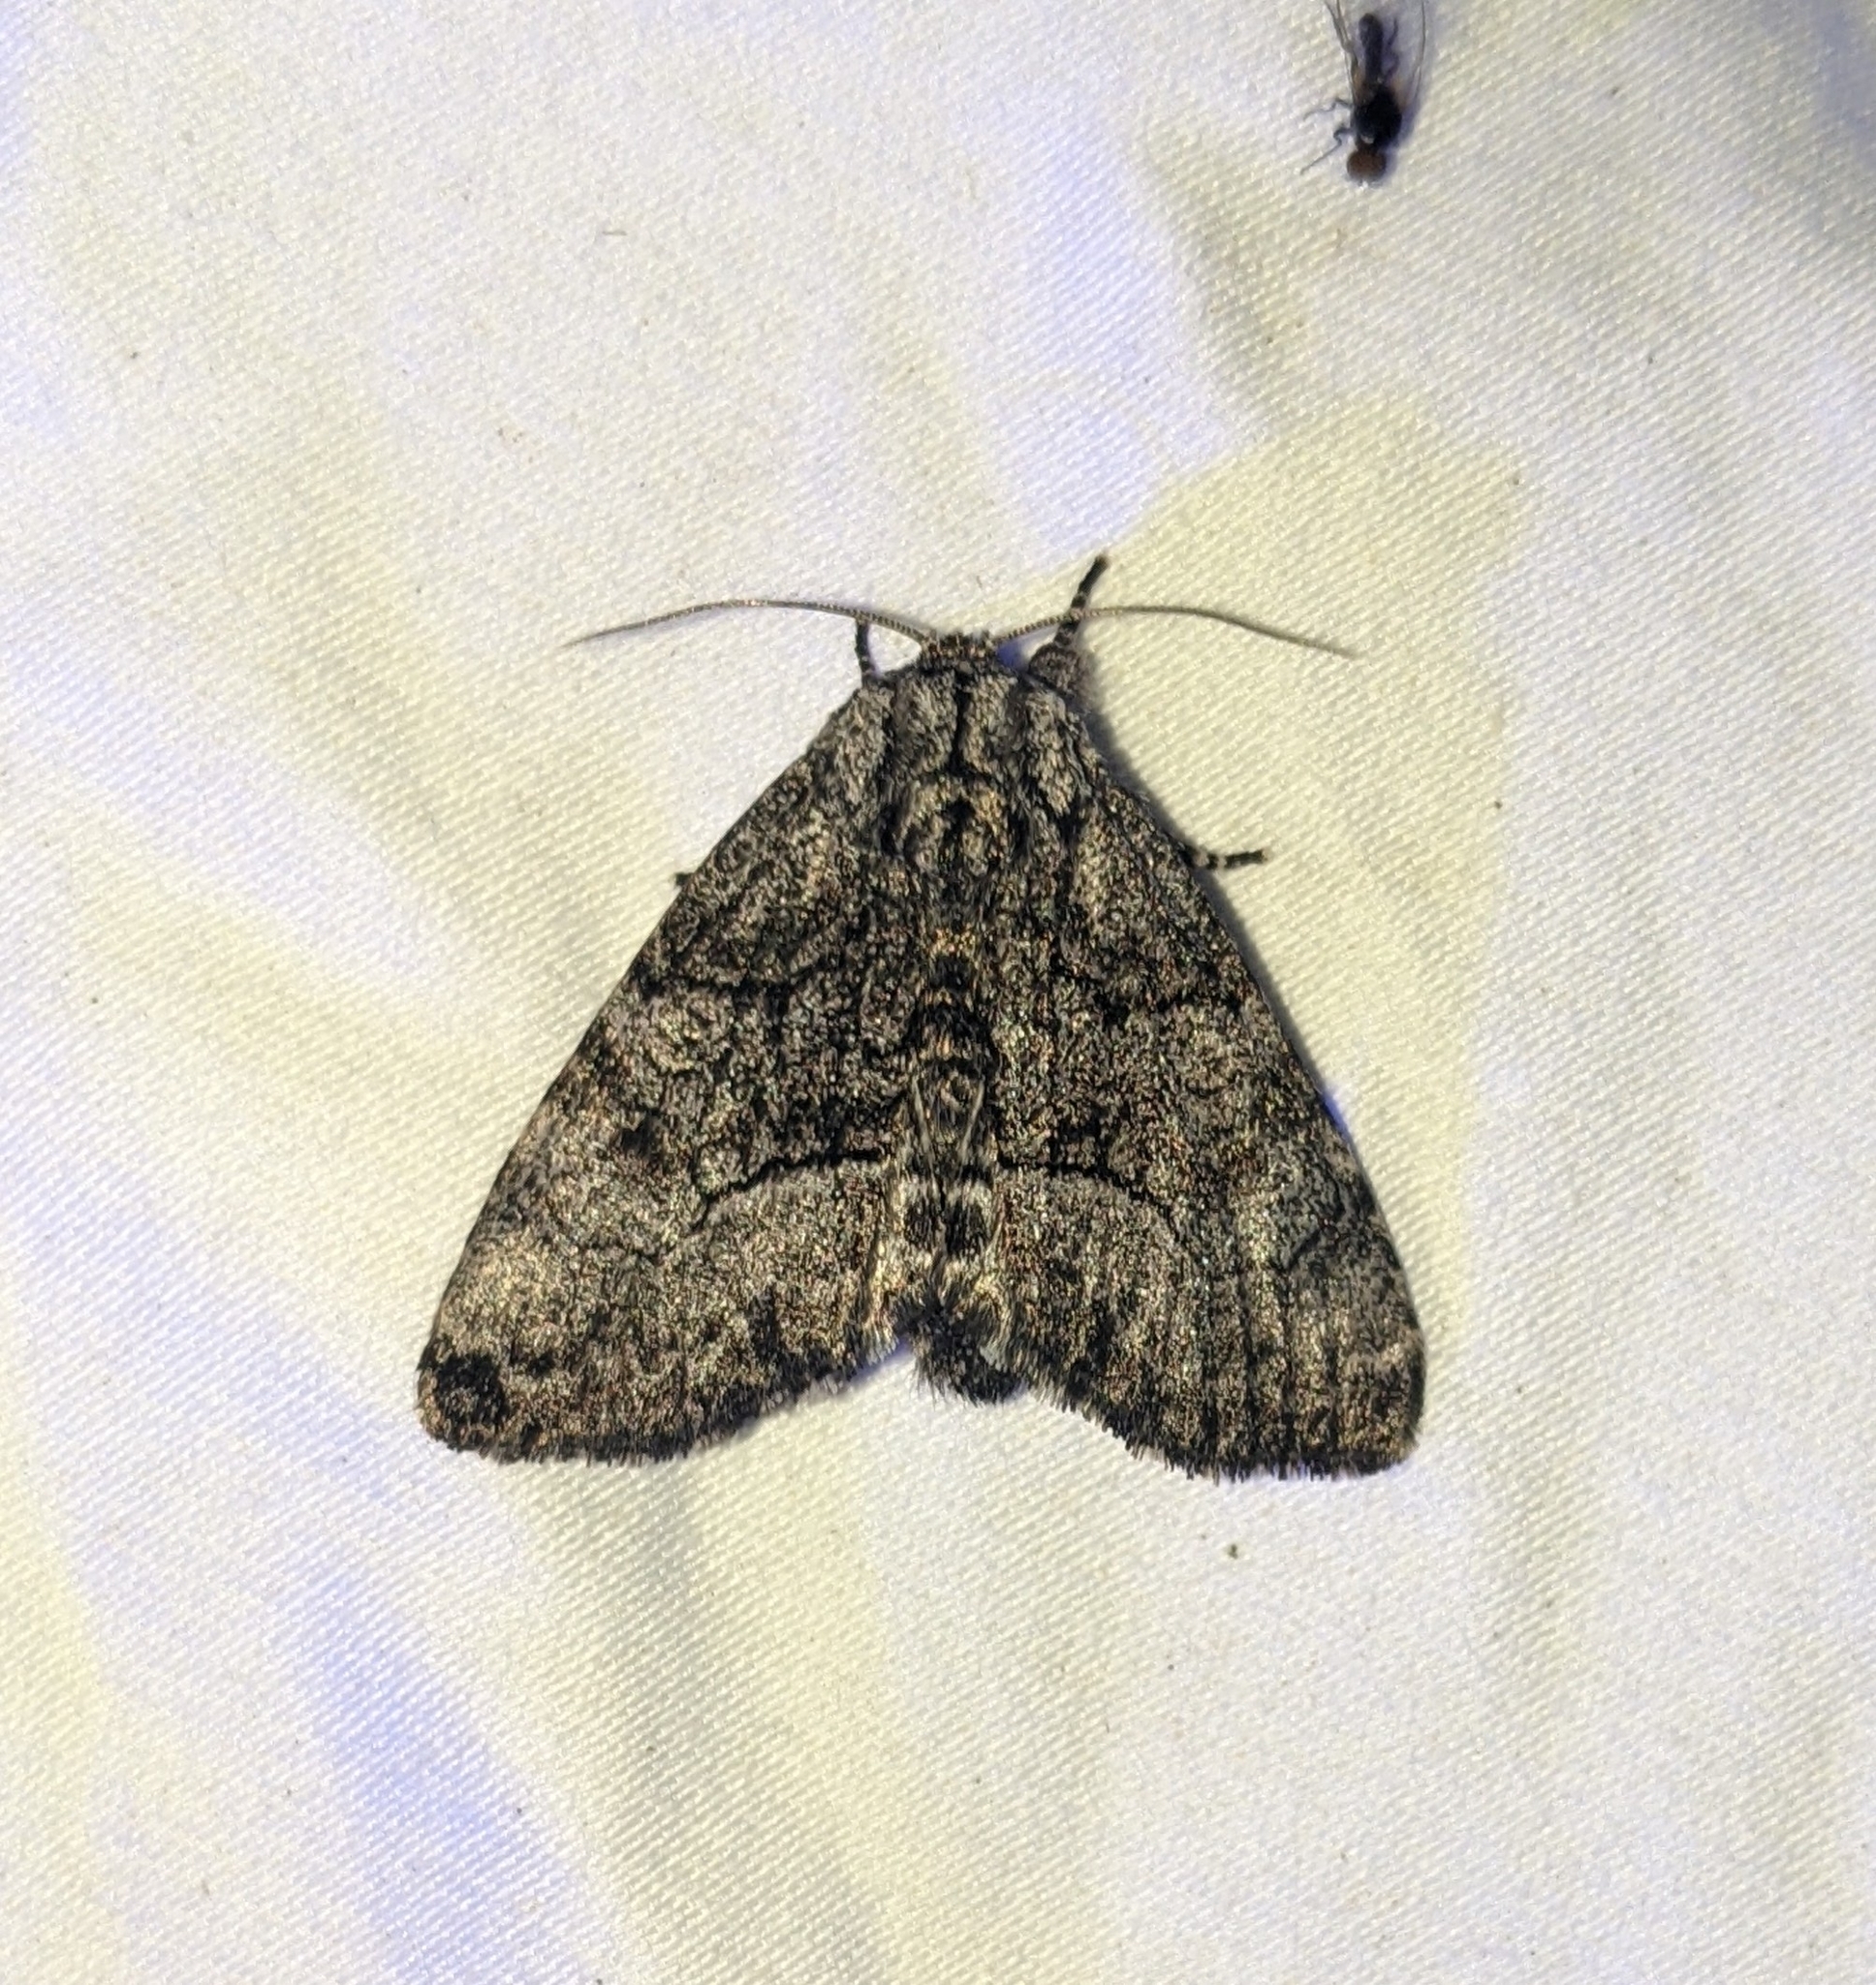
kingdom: Animalia
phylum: Arthropoda
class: Insecta
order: Lepidoptera
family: Noctuidae
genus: Raphia
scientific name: Raphia frater
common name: Brother
